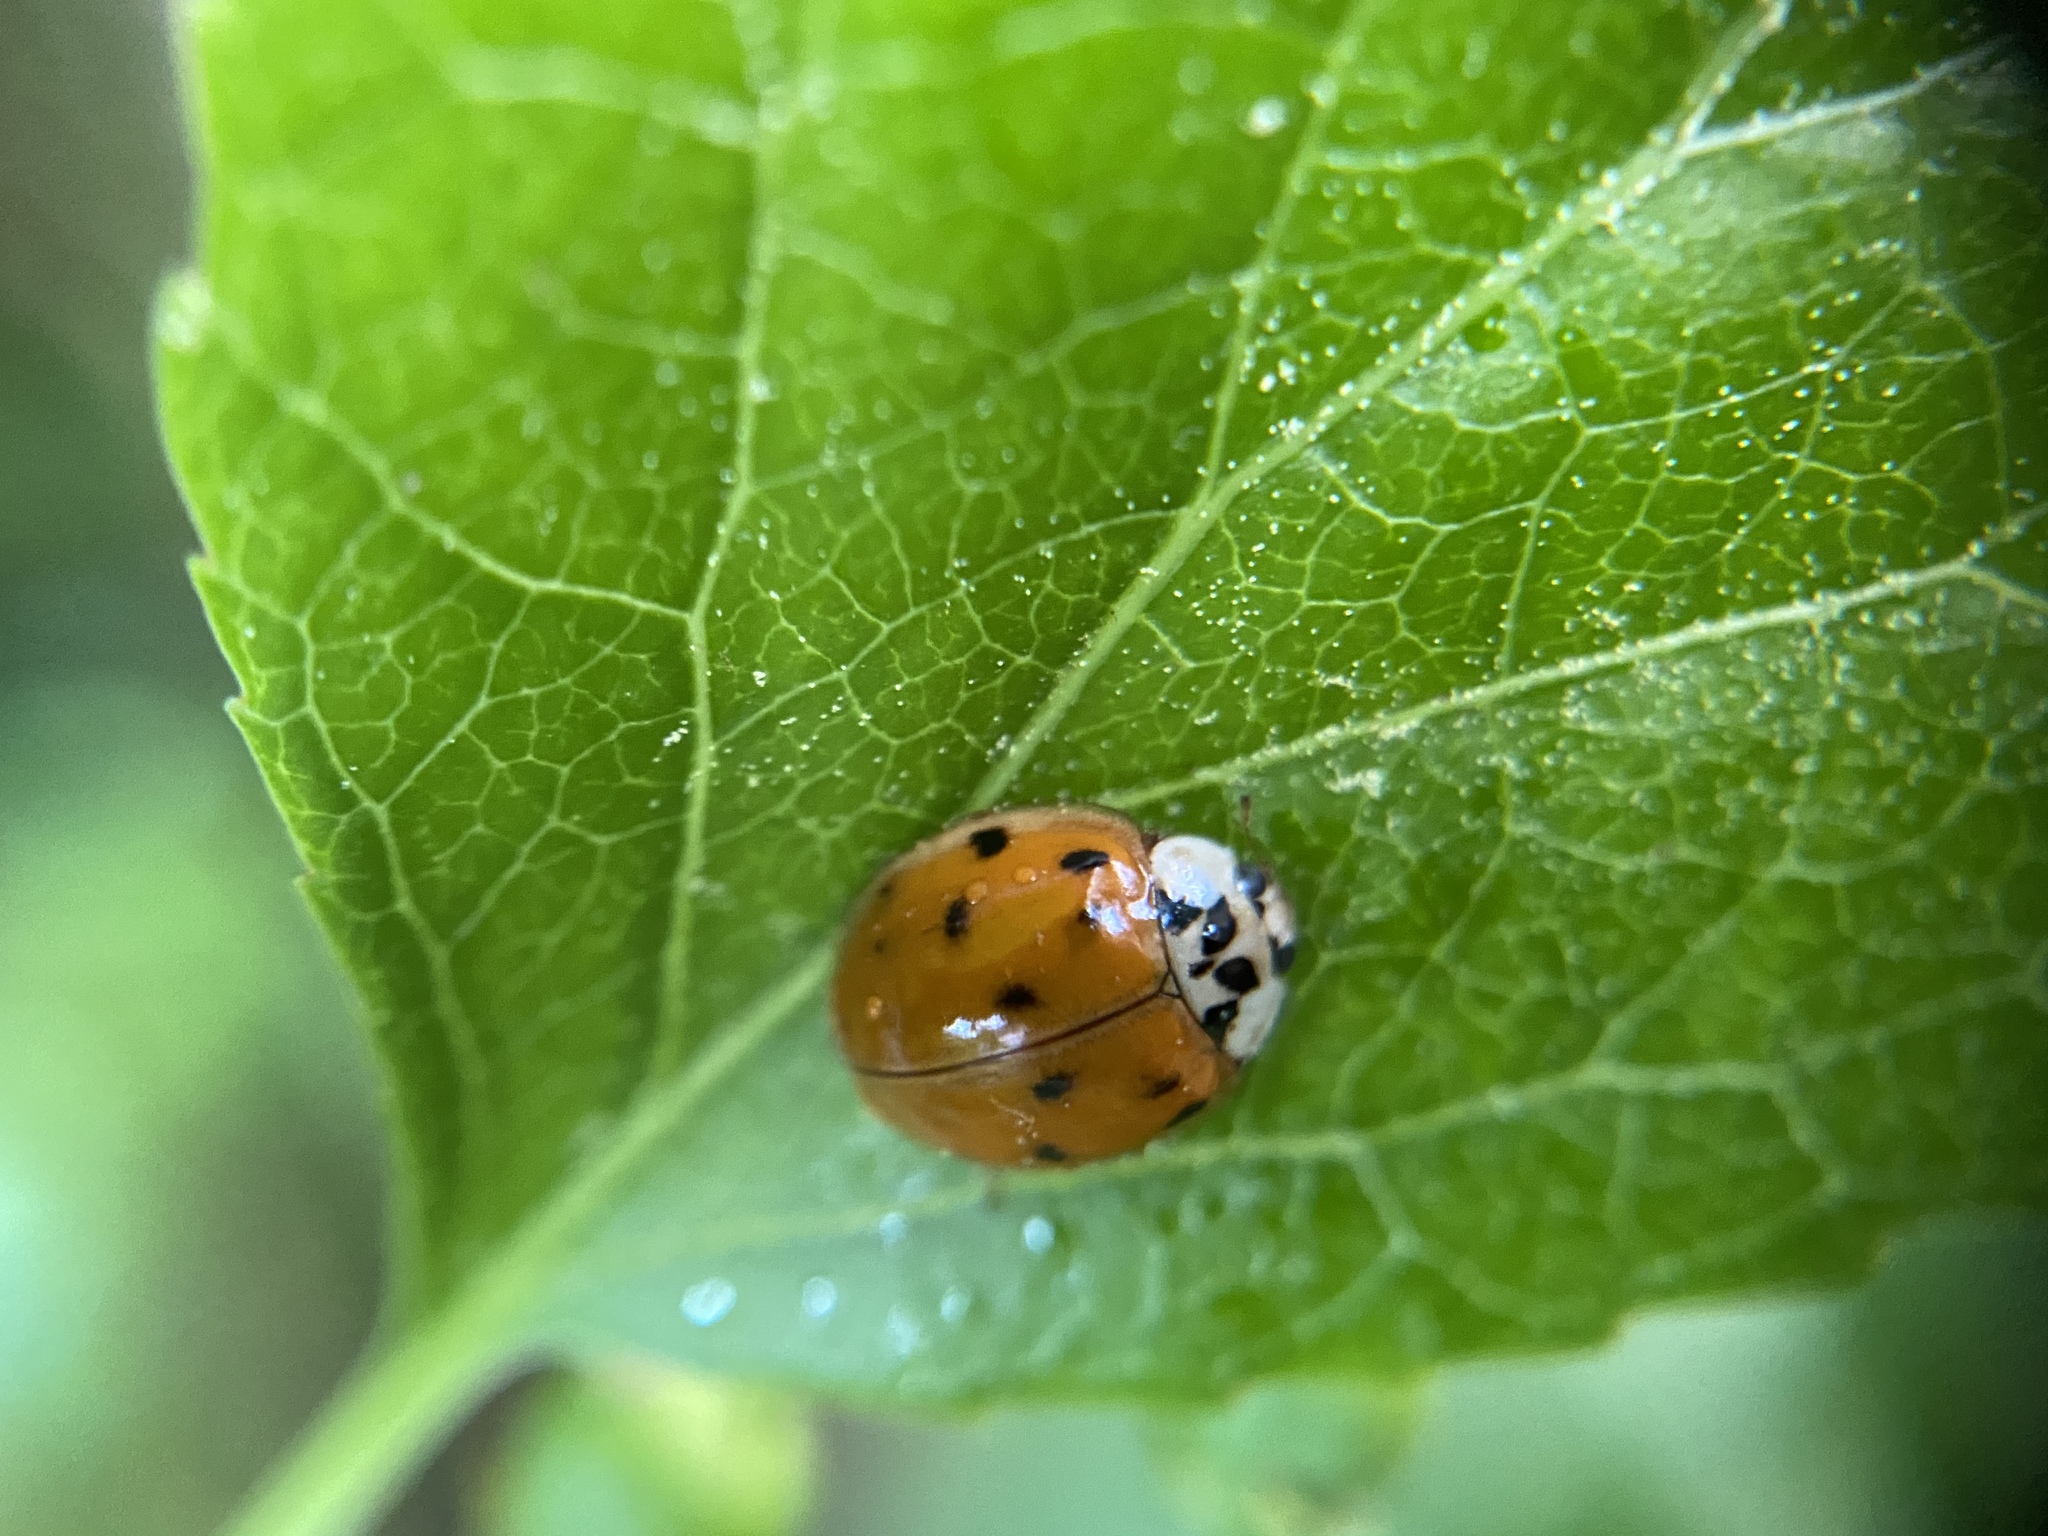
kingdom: Animalia
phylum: Arthropoda
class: Insecta
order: Coleoptera
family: Coccinellidae
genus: Harmonia
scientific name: Harmonia axyridis
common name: Harlequin ladybird
